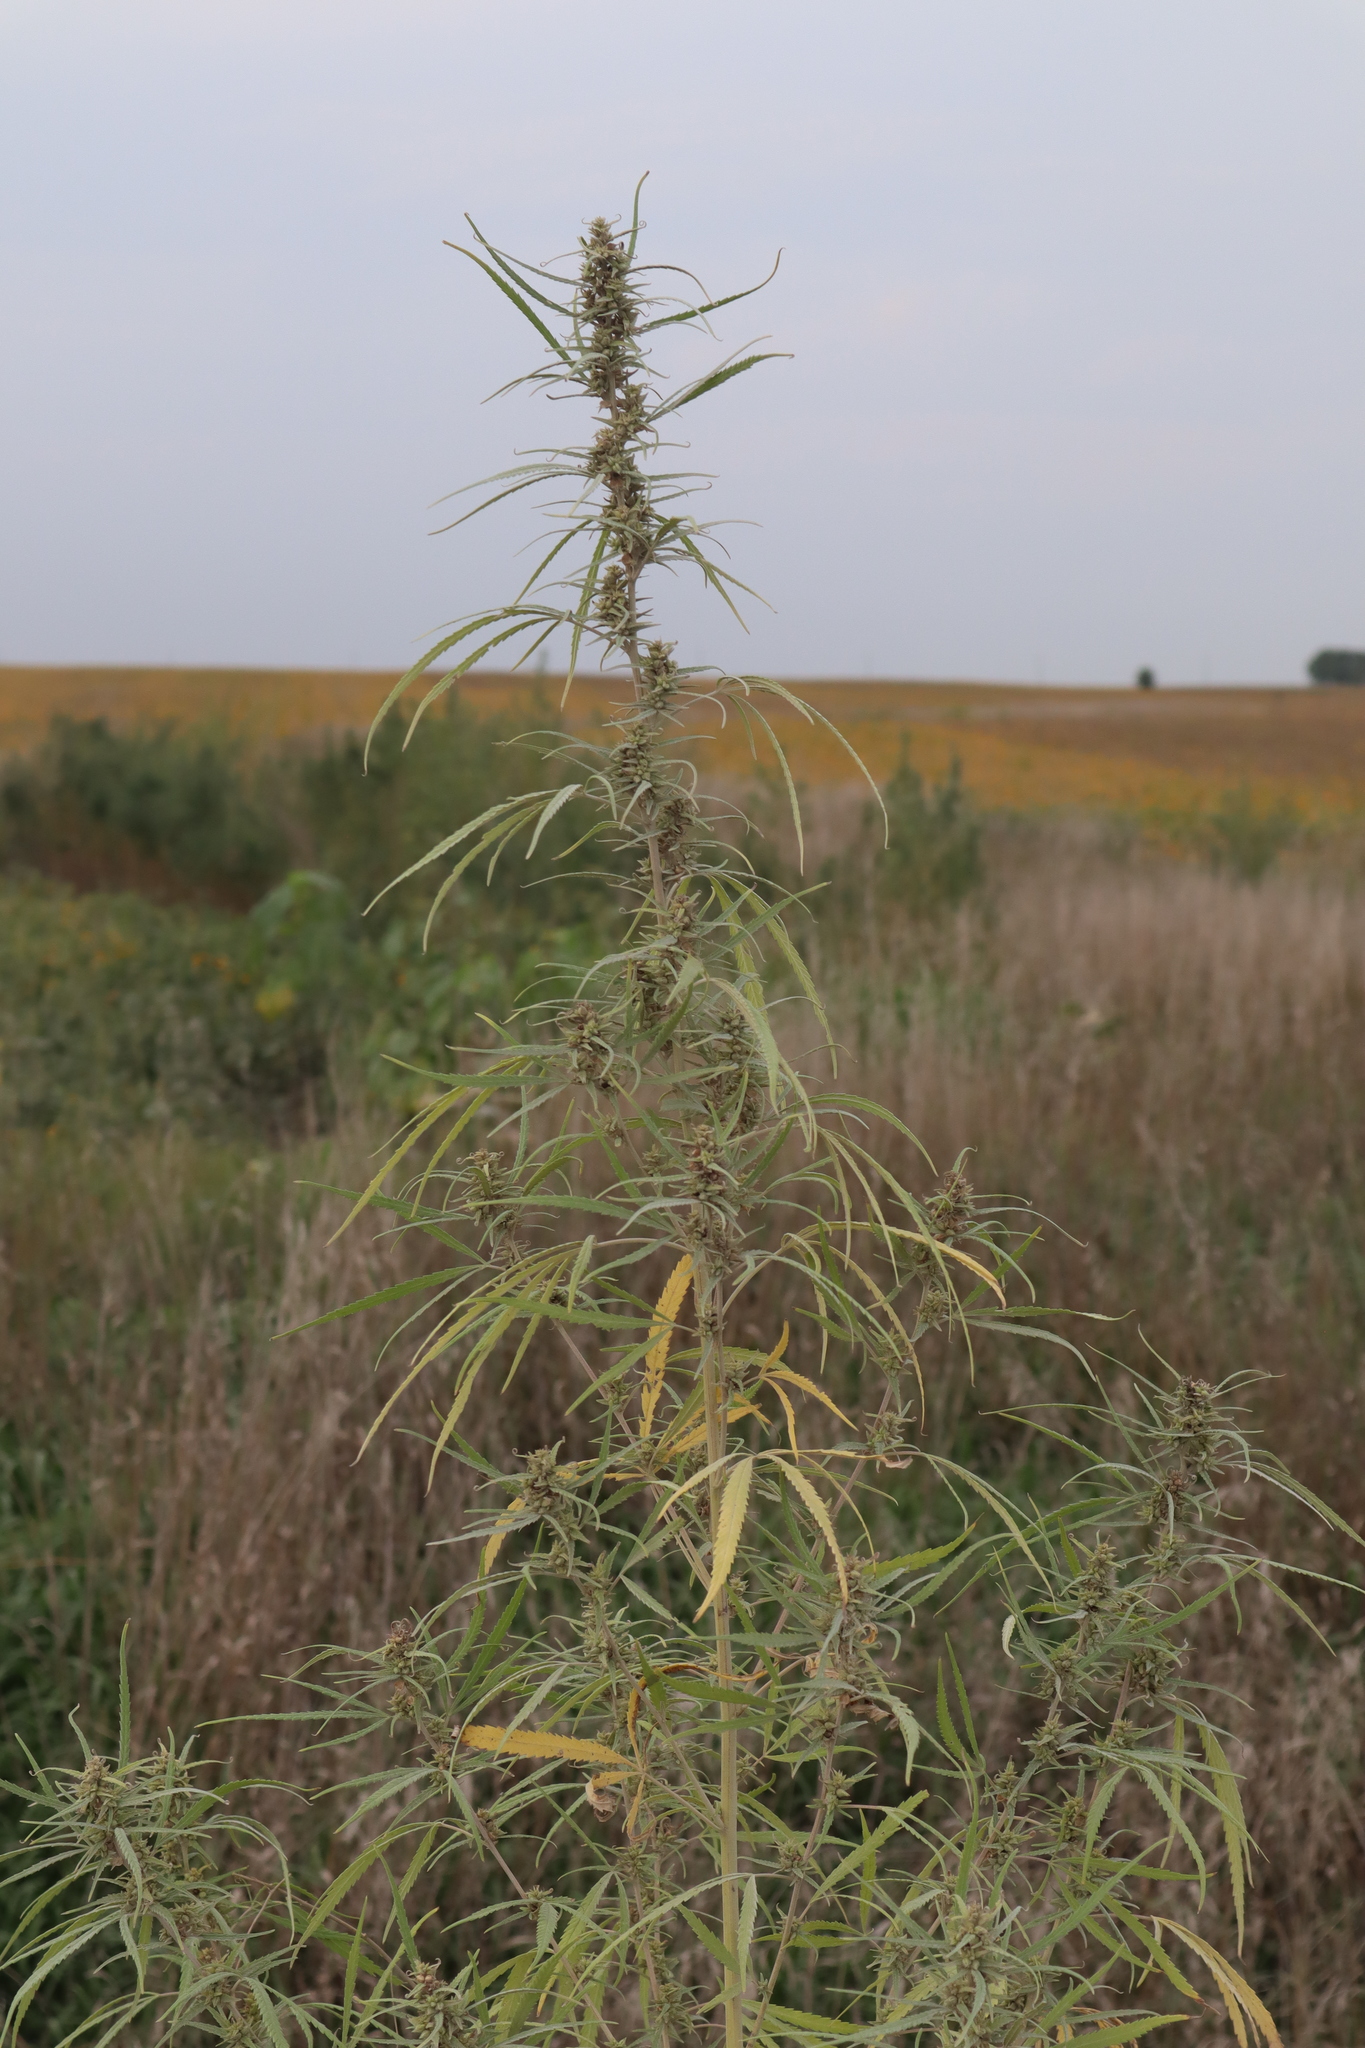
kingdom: Plantae
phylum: Tracheophyta
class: Magnoliopsida
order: Rosales
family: Cannabaceae
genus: Cannabis
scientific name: Cannabis sativa
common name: Hemp
